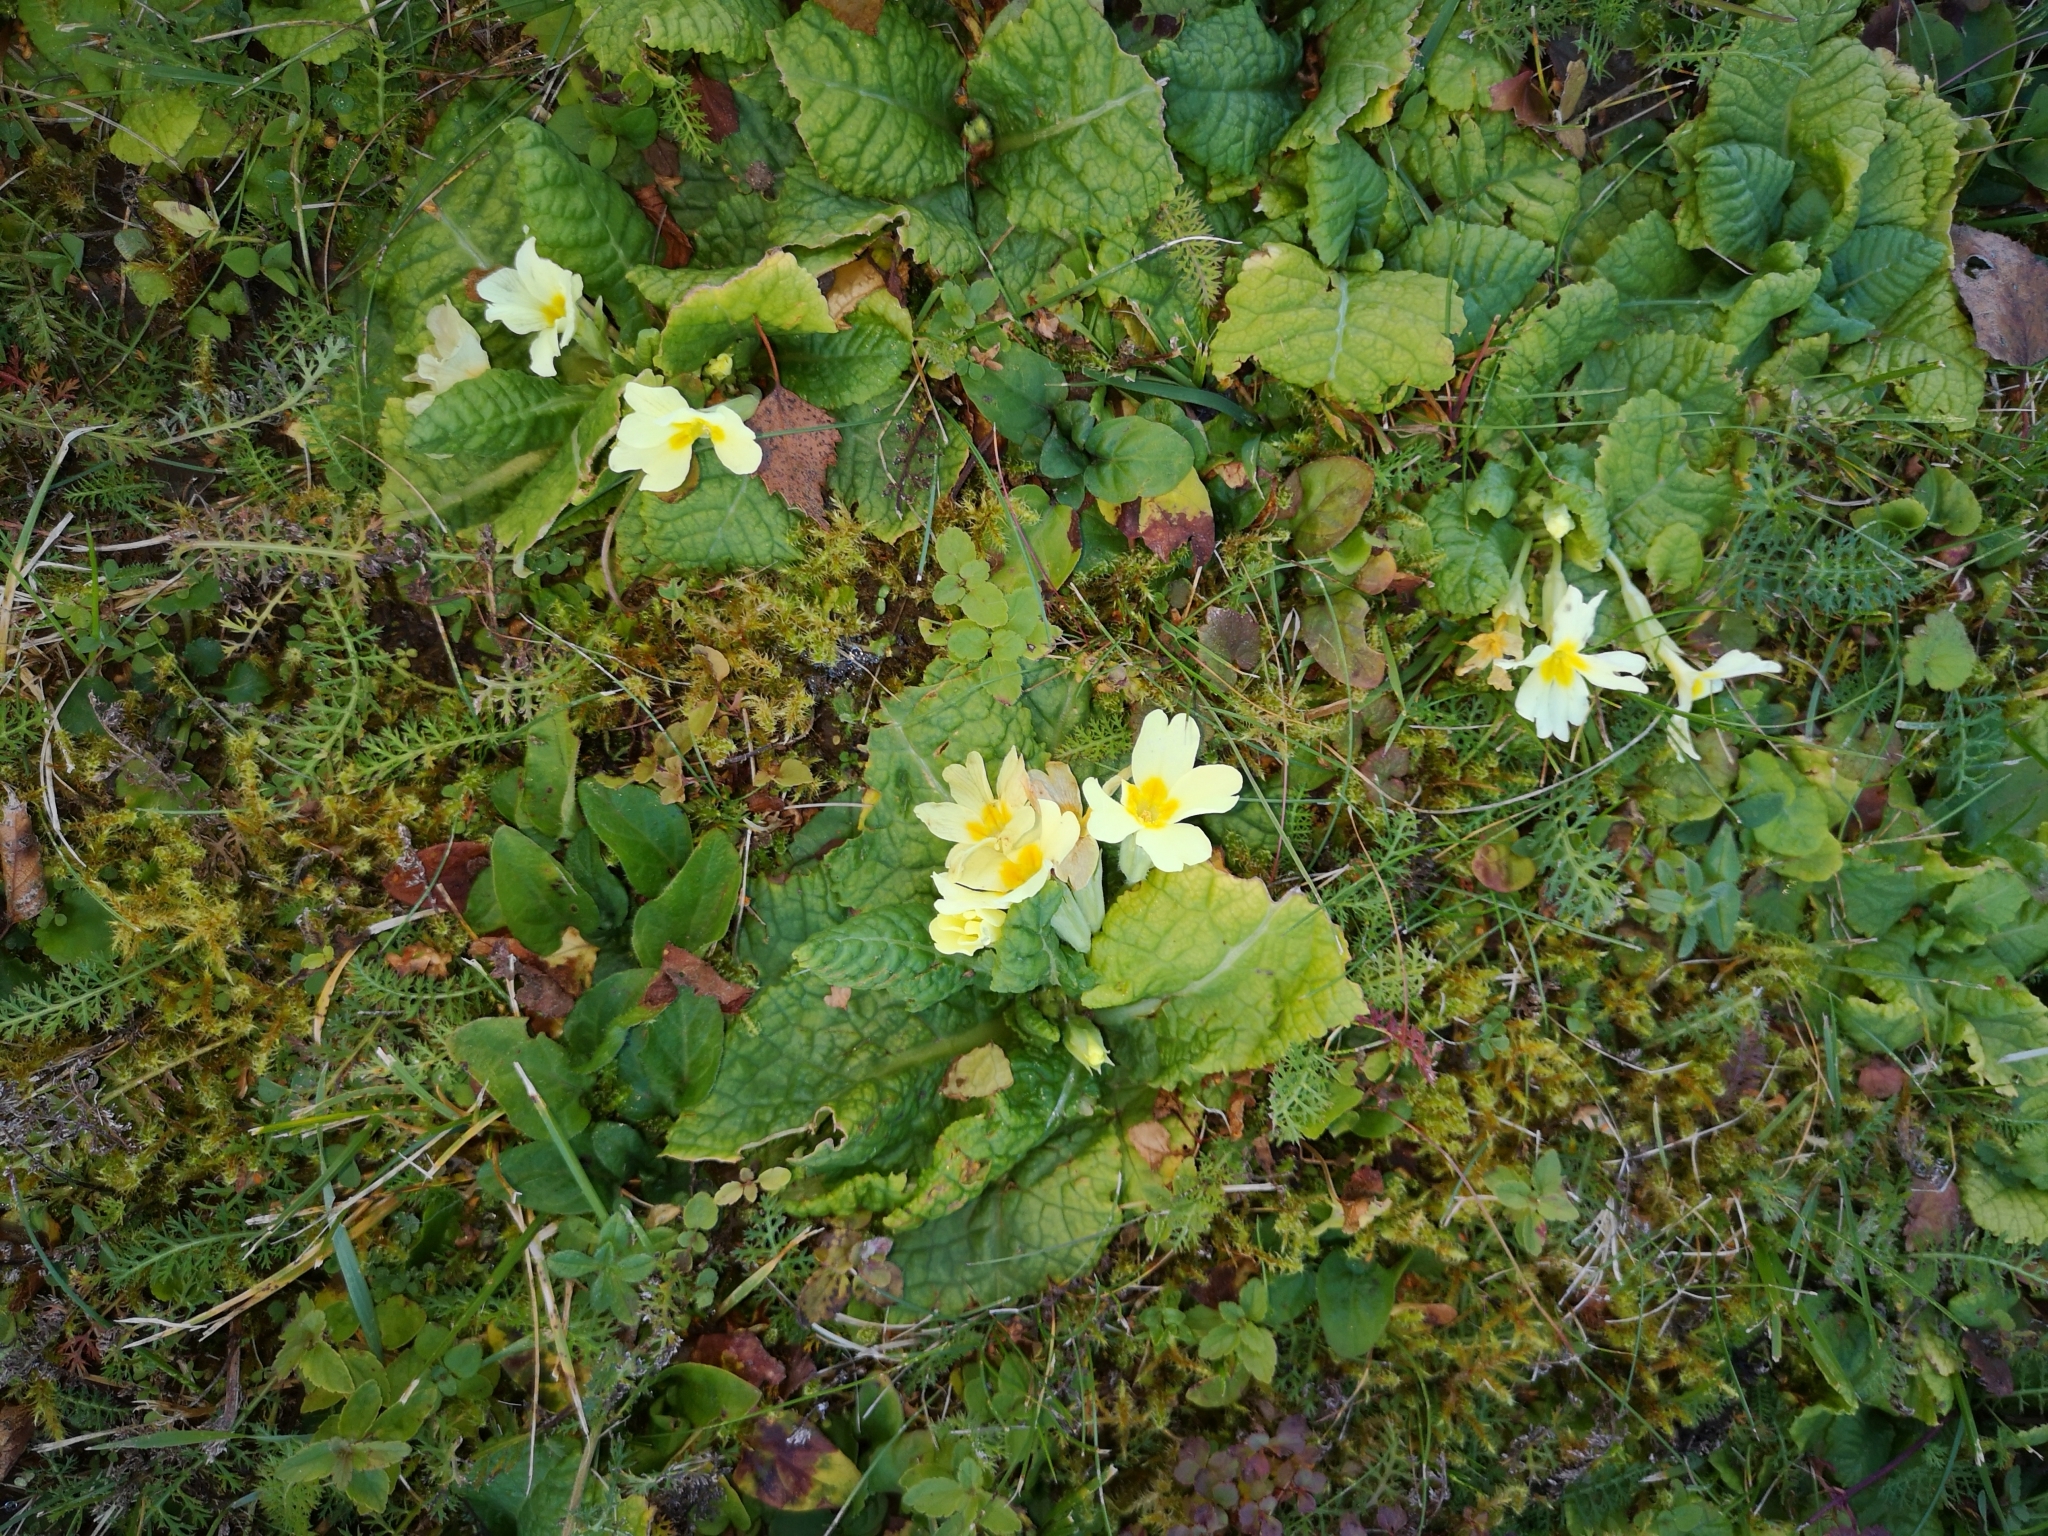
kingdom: Plantae
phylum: Tracheophyta
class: Magnoliopsida
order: Ericales
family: Primulaceae
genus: Primula
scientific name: Primula vulgaris
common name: Primrose
